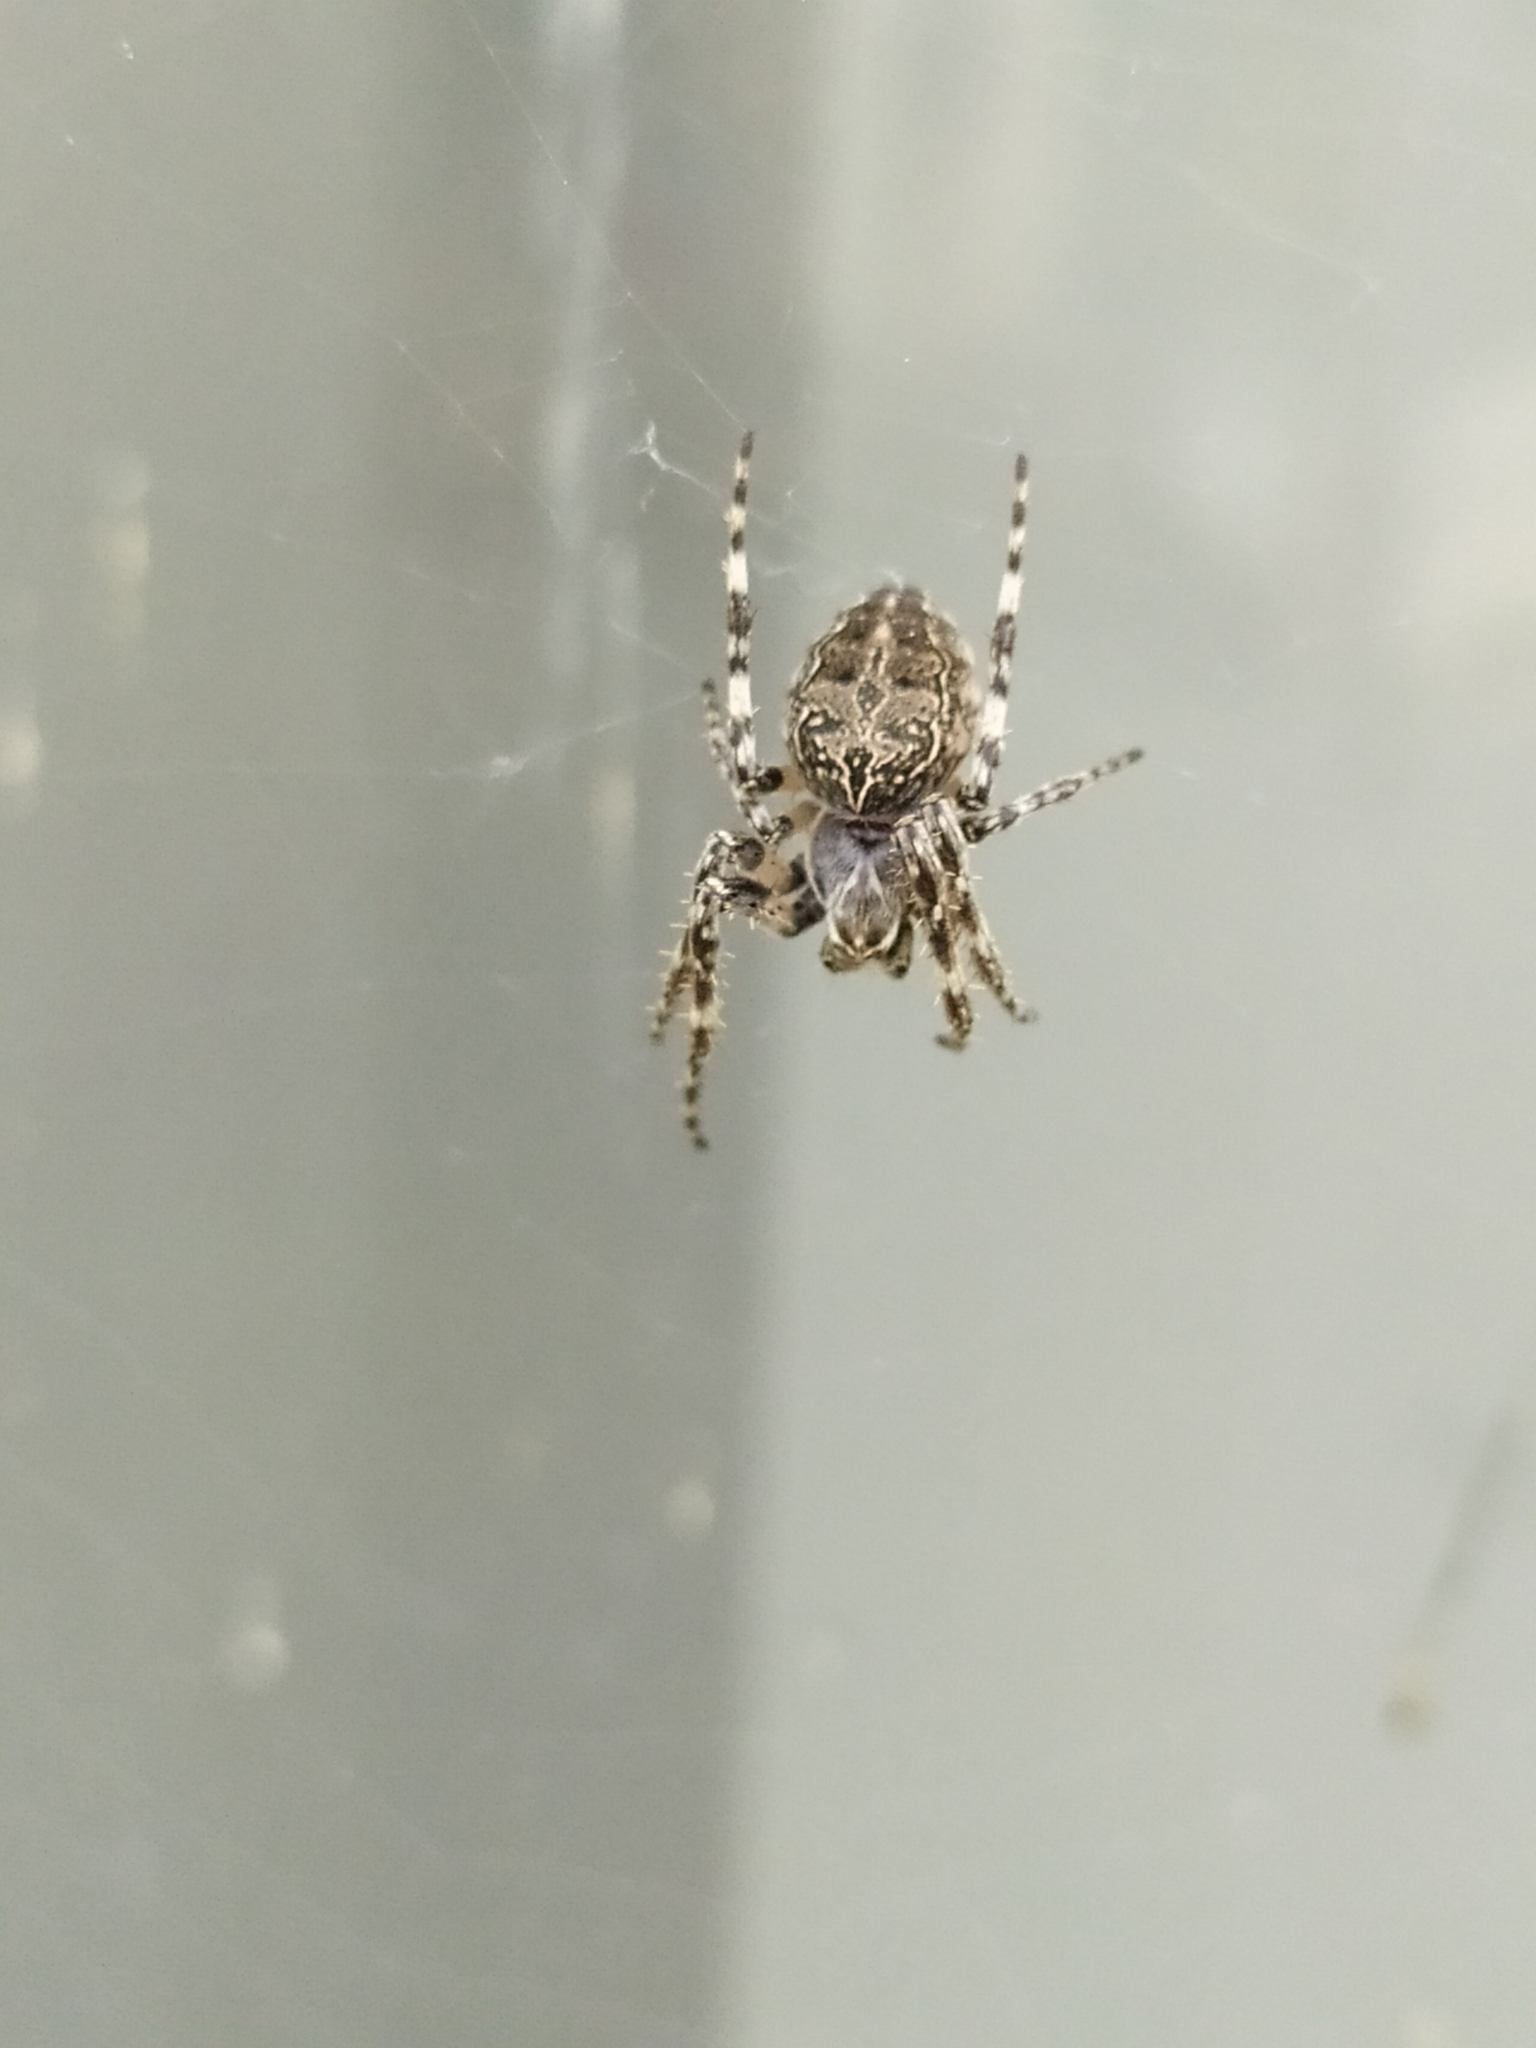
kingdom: Animalia
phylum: Arthropoda
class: Arachnida
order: Araneae
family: Araneidae
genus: Larinioides
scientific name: Larinioides sclopetarius
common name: Bridge orbweaver
